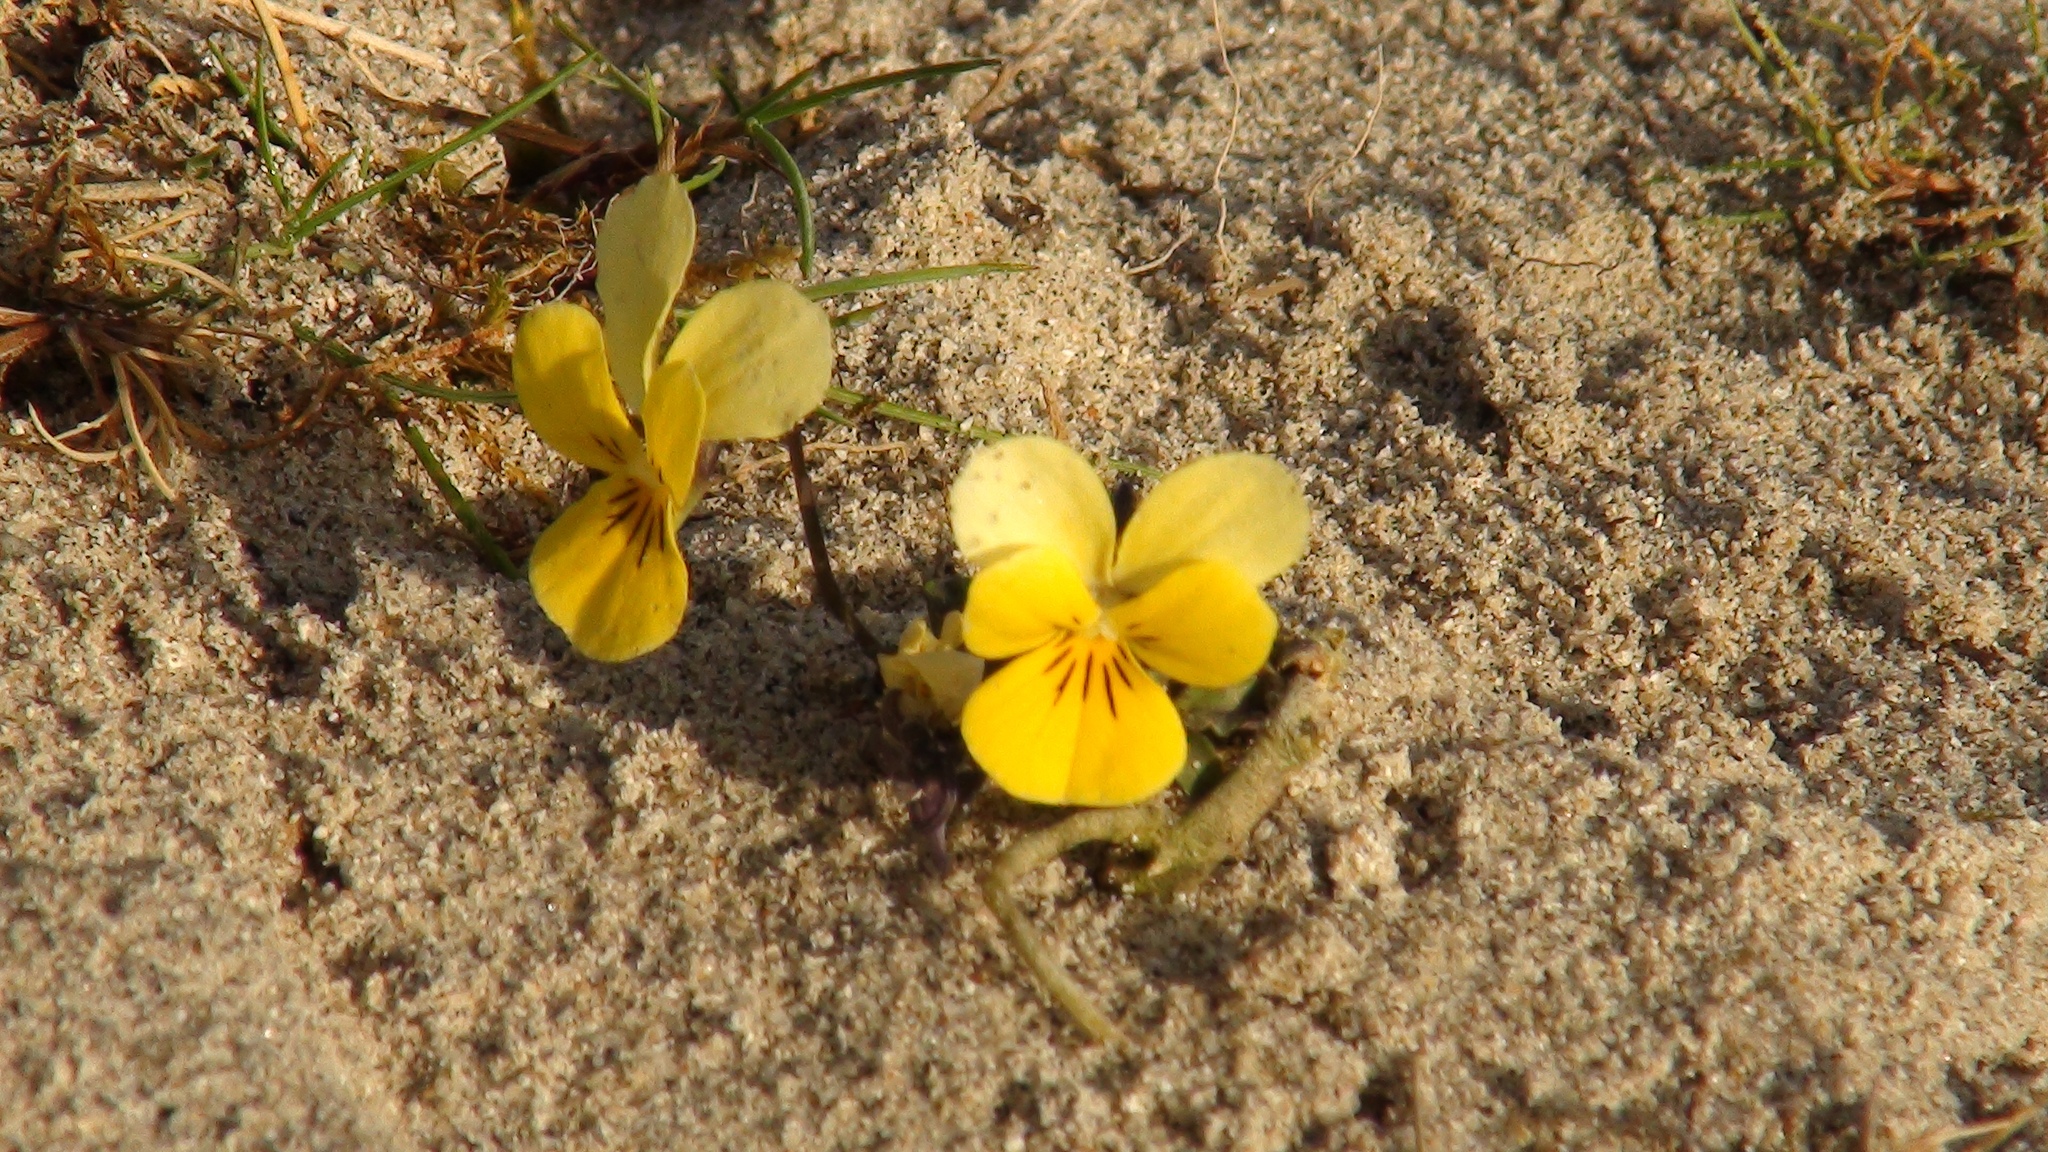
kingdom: Plantae
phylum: Tracheophyta
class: Magnoliopsida
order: Malpighiales
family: Violaceae
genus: Viola
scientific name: Viola tricolor
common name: Pansy
